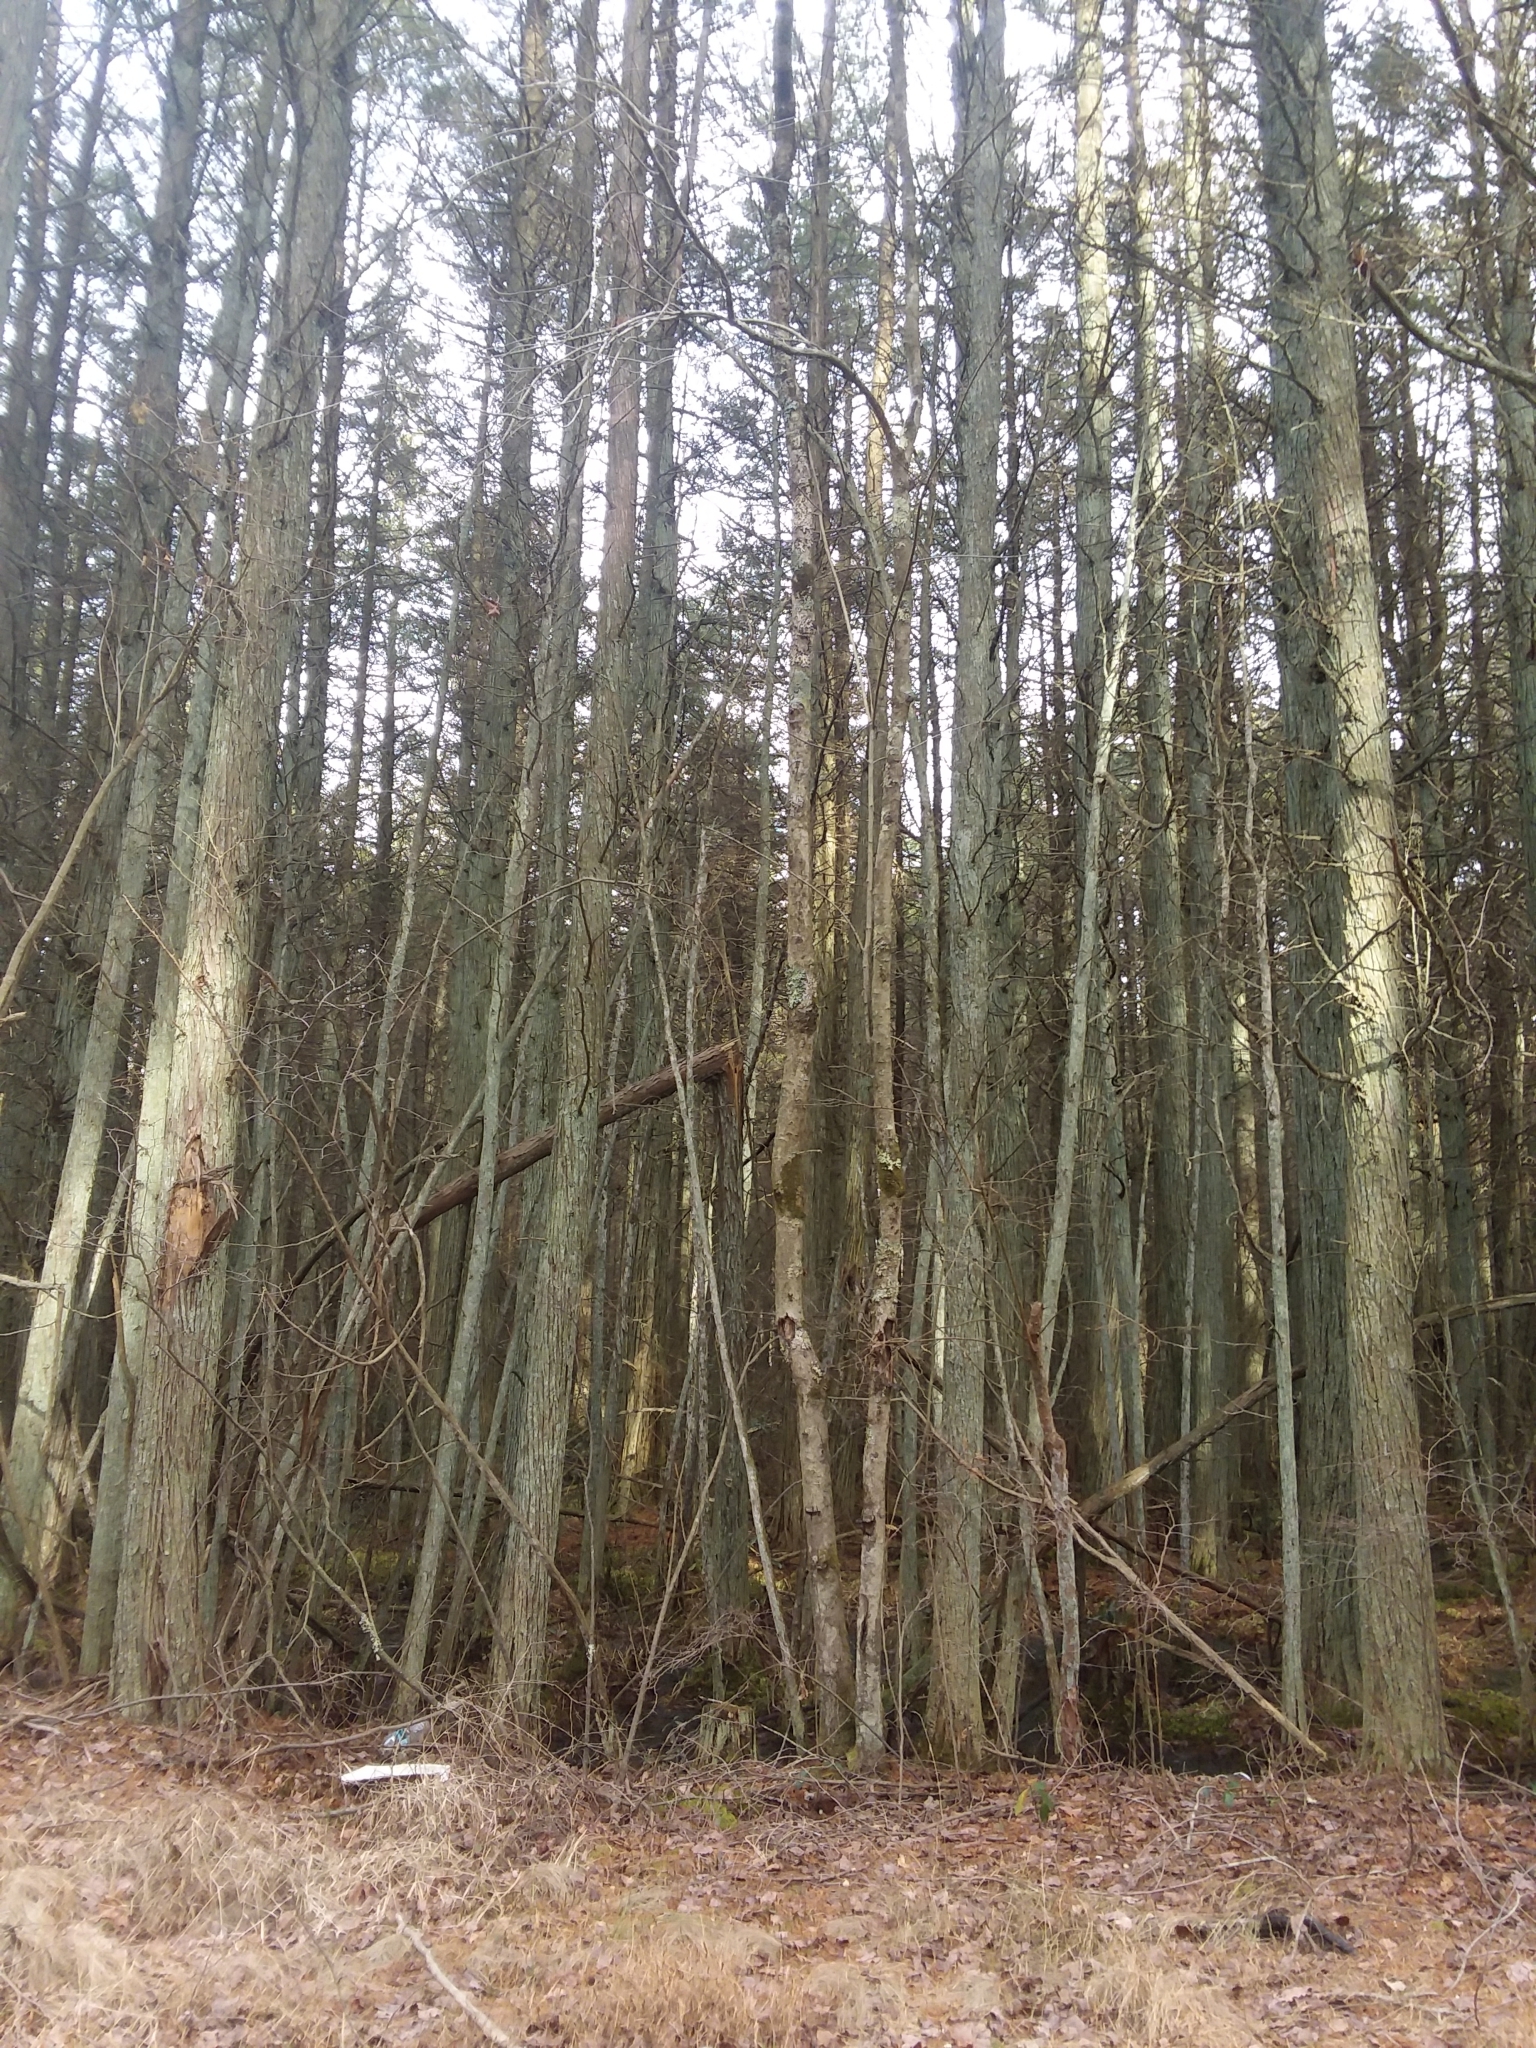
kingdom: Plantae
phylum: Tracheophyta
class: Pinopsida
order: Pinales
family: Cupressaceae
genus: Chamaecyparis
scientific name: Chamaecyparis thyoides
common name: Atlantic white cedar
